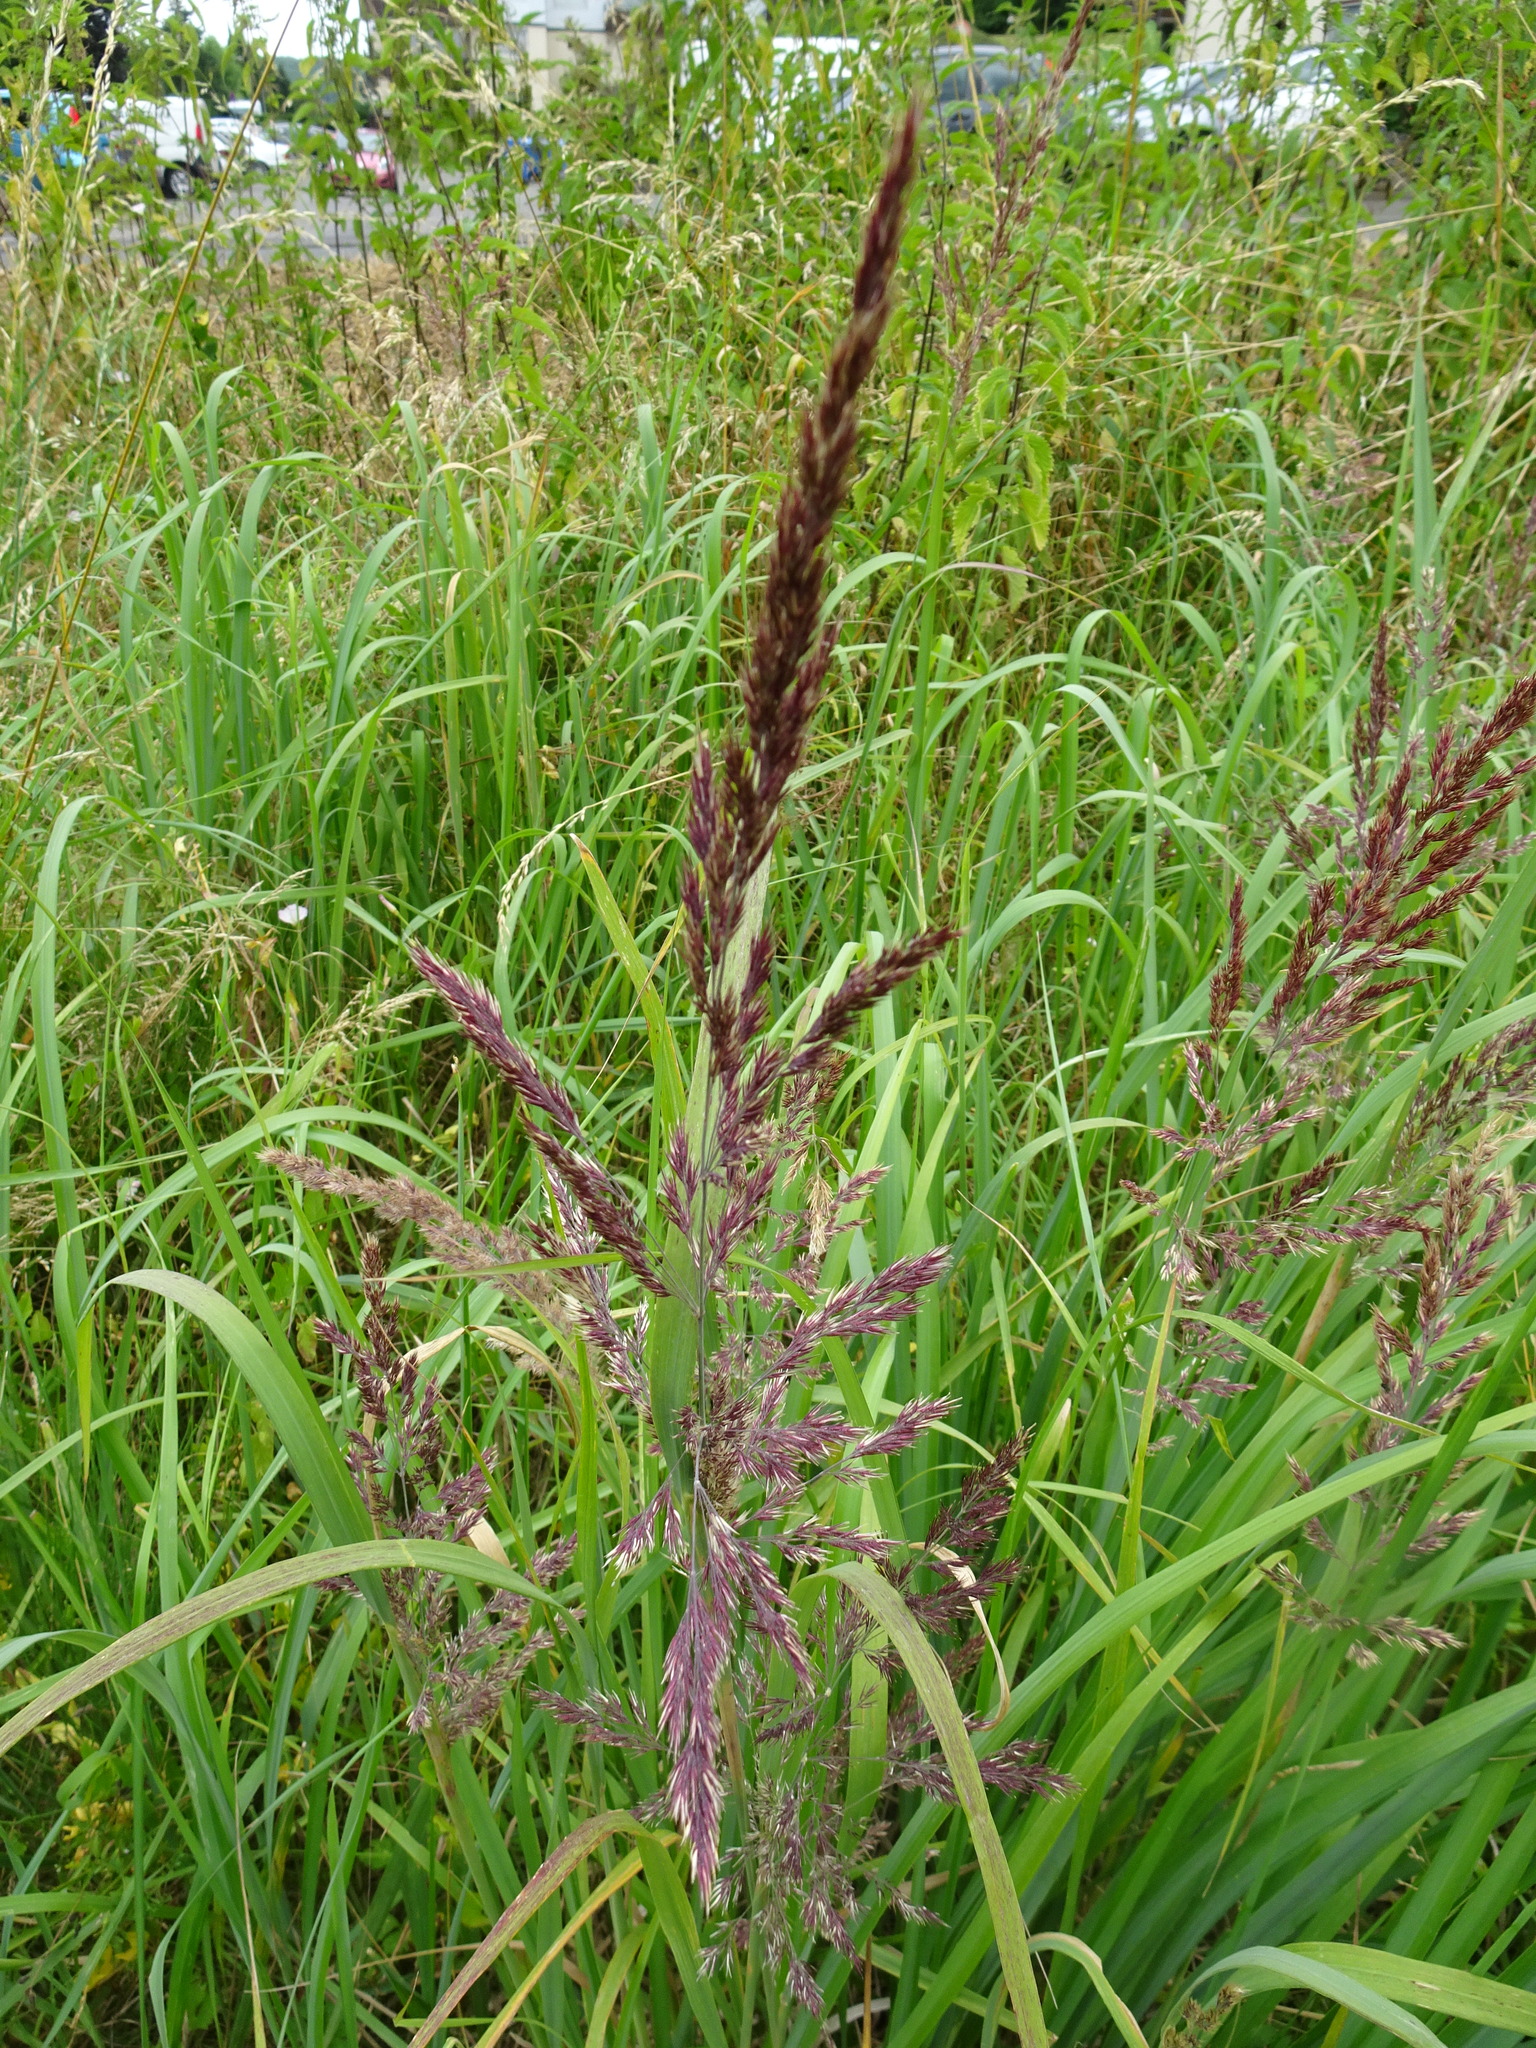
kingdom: Plantae
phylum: Tracheophyta
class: Liliopsida
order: Poales
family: Poaceae
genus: Calamagrostis
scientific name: Calamagrostis epigejos
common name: Wood small-reed
